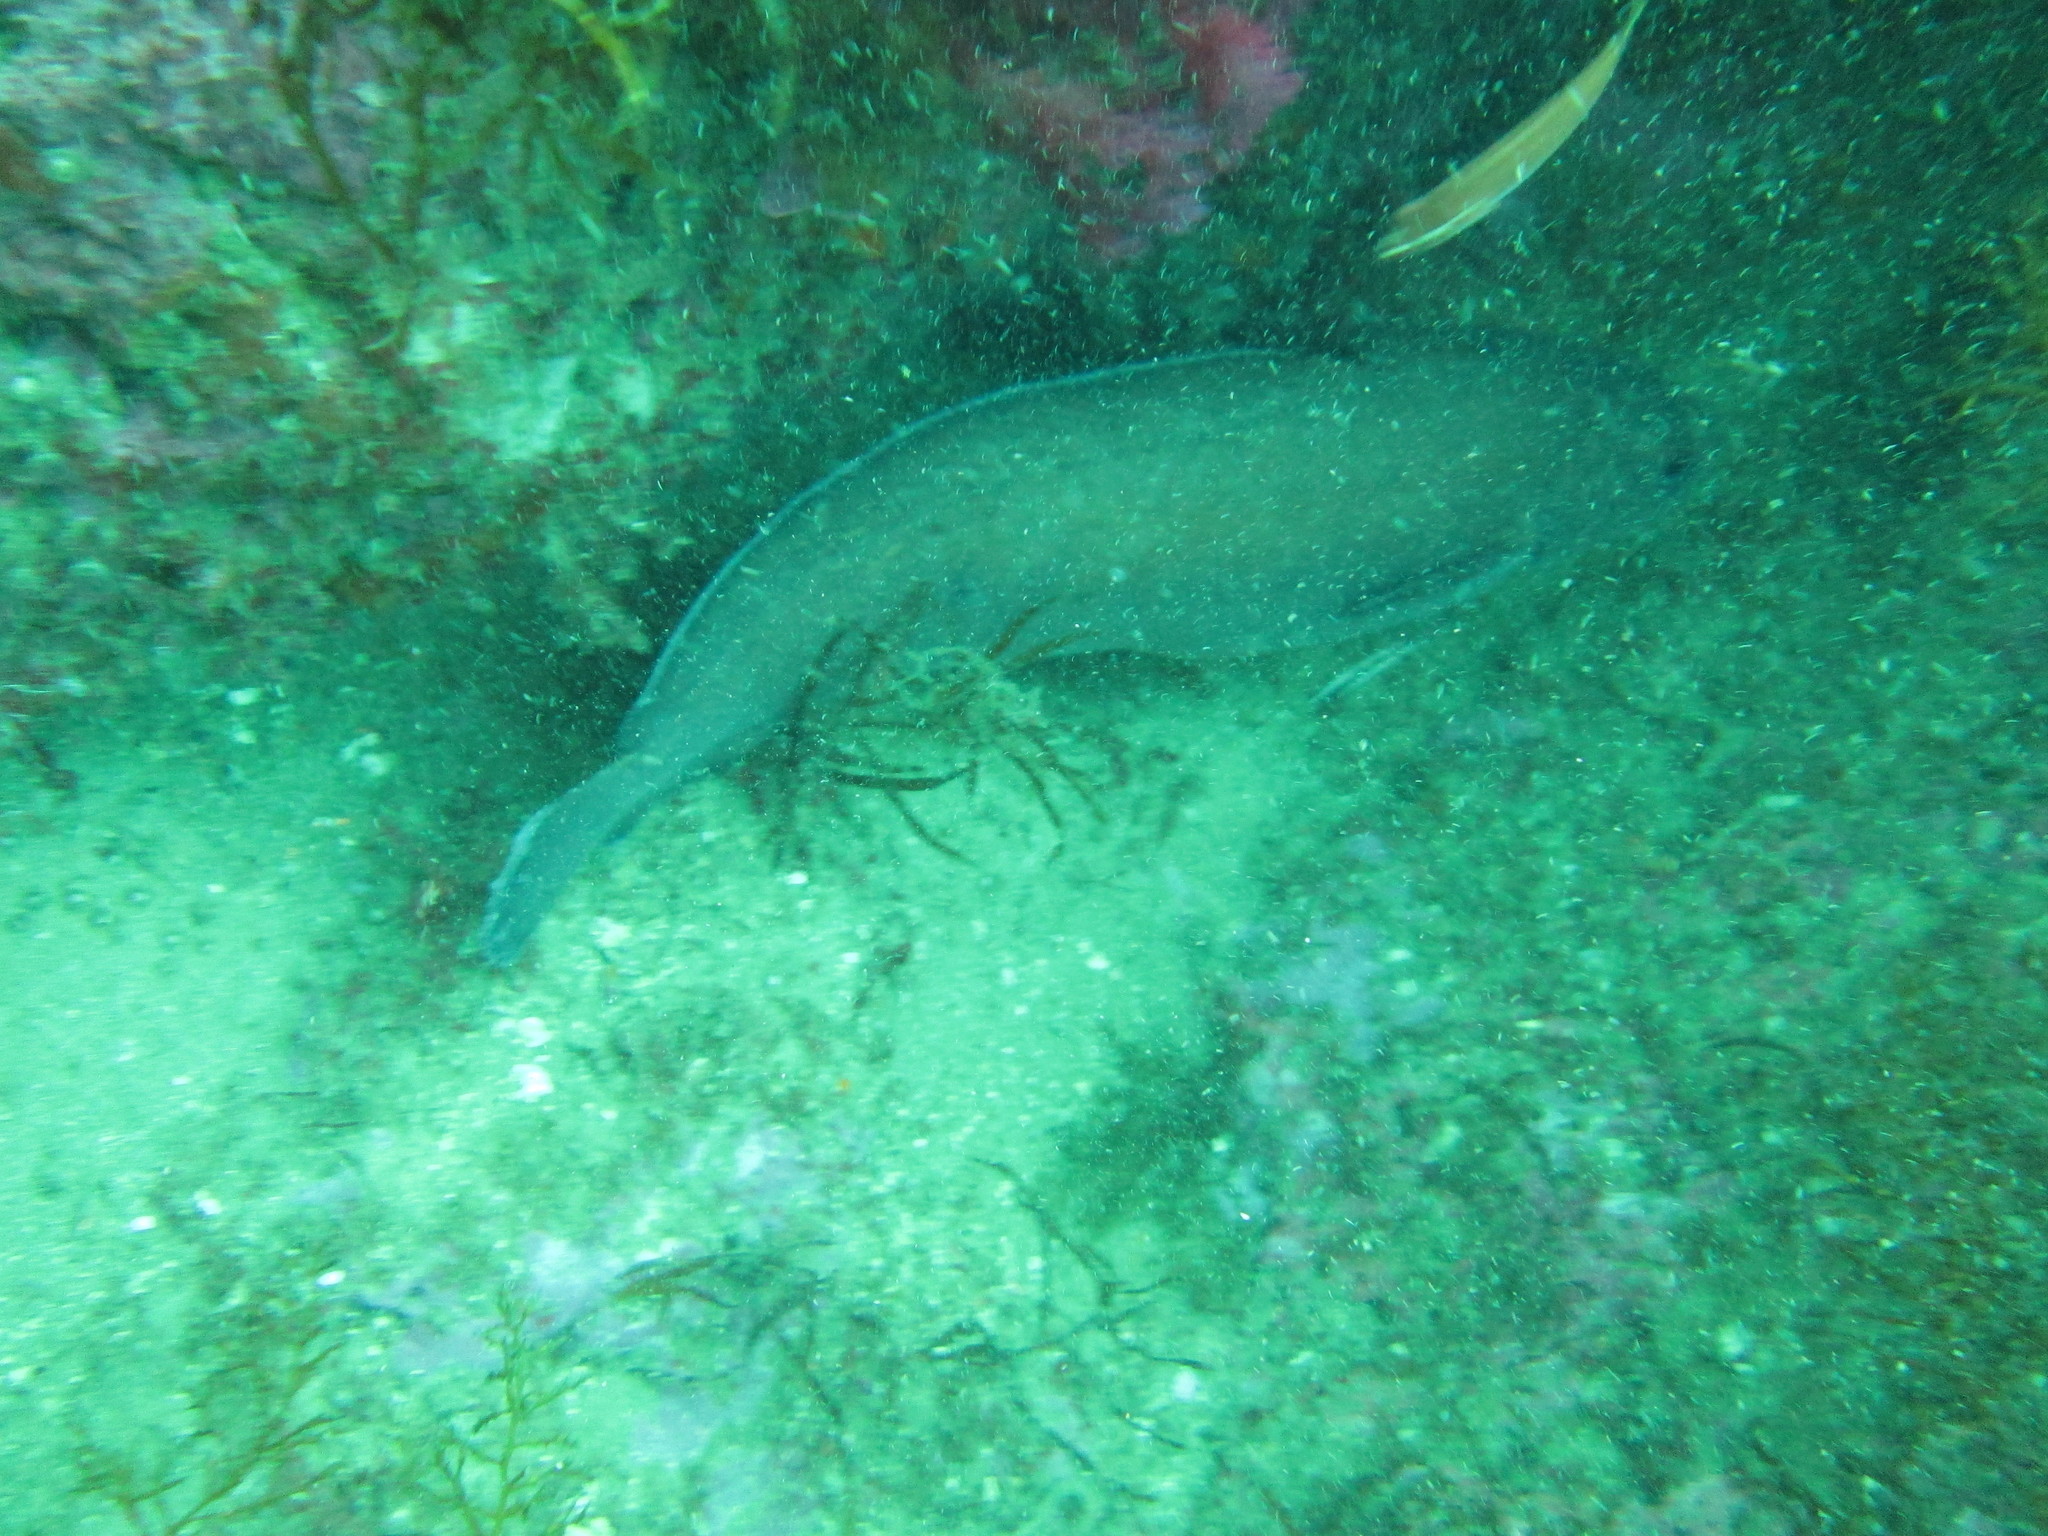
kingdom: Animalia
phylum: Chordata
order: Gadiformes
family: Phycidae
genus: Phycis
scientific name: Phycis phycis
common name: Forkbeard
